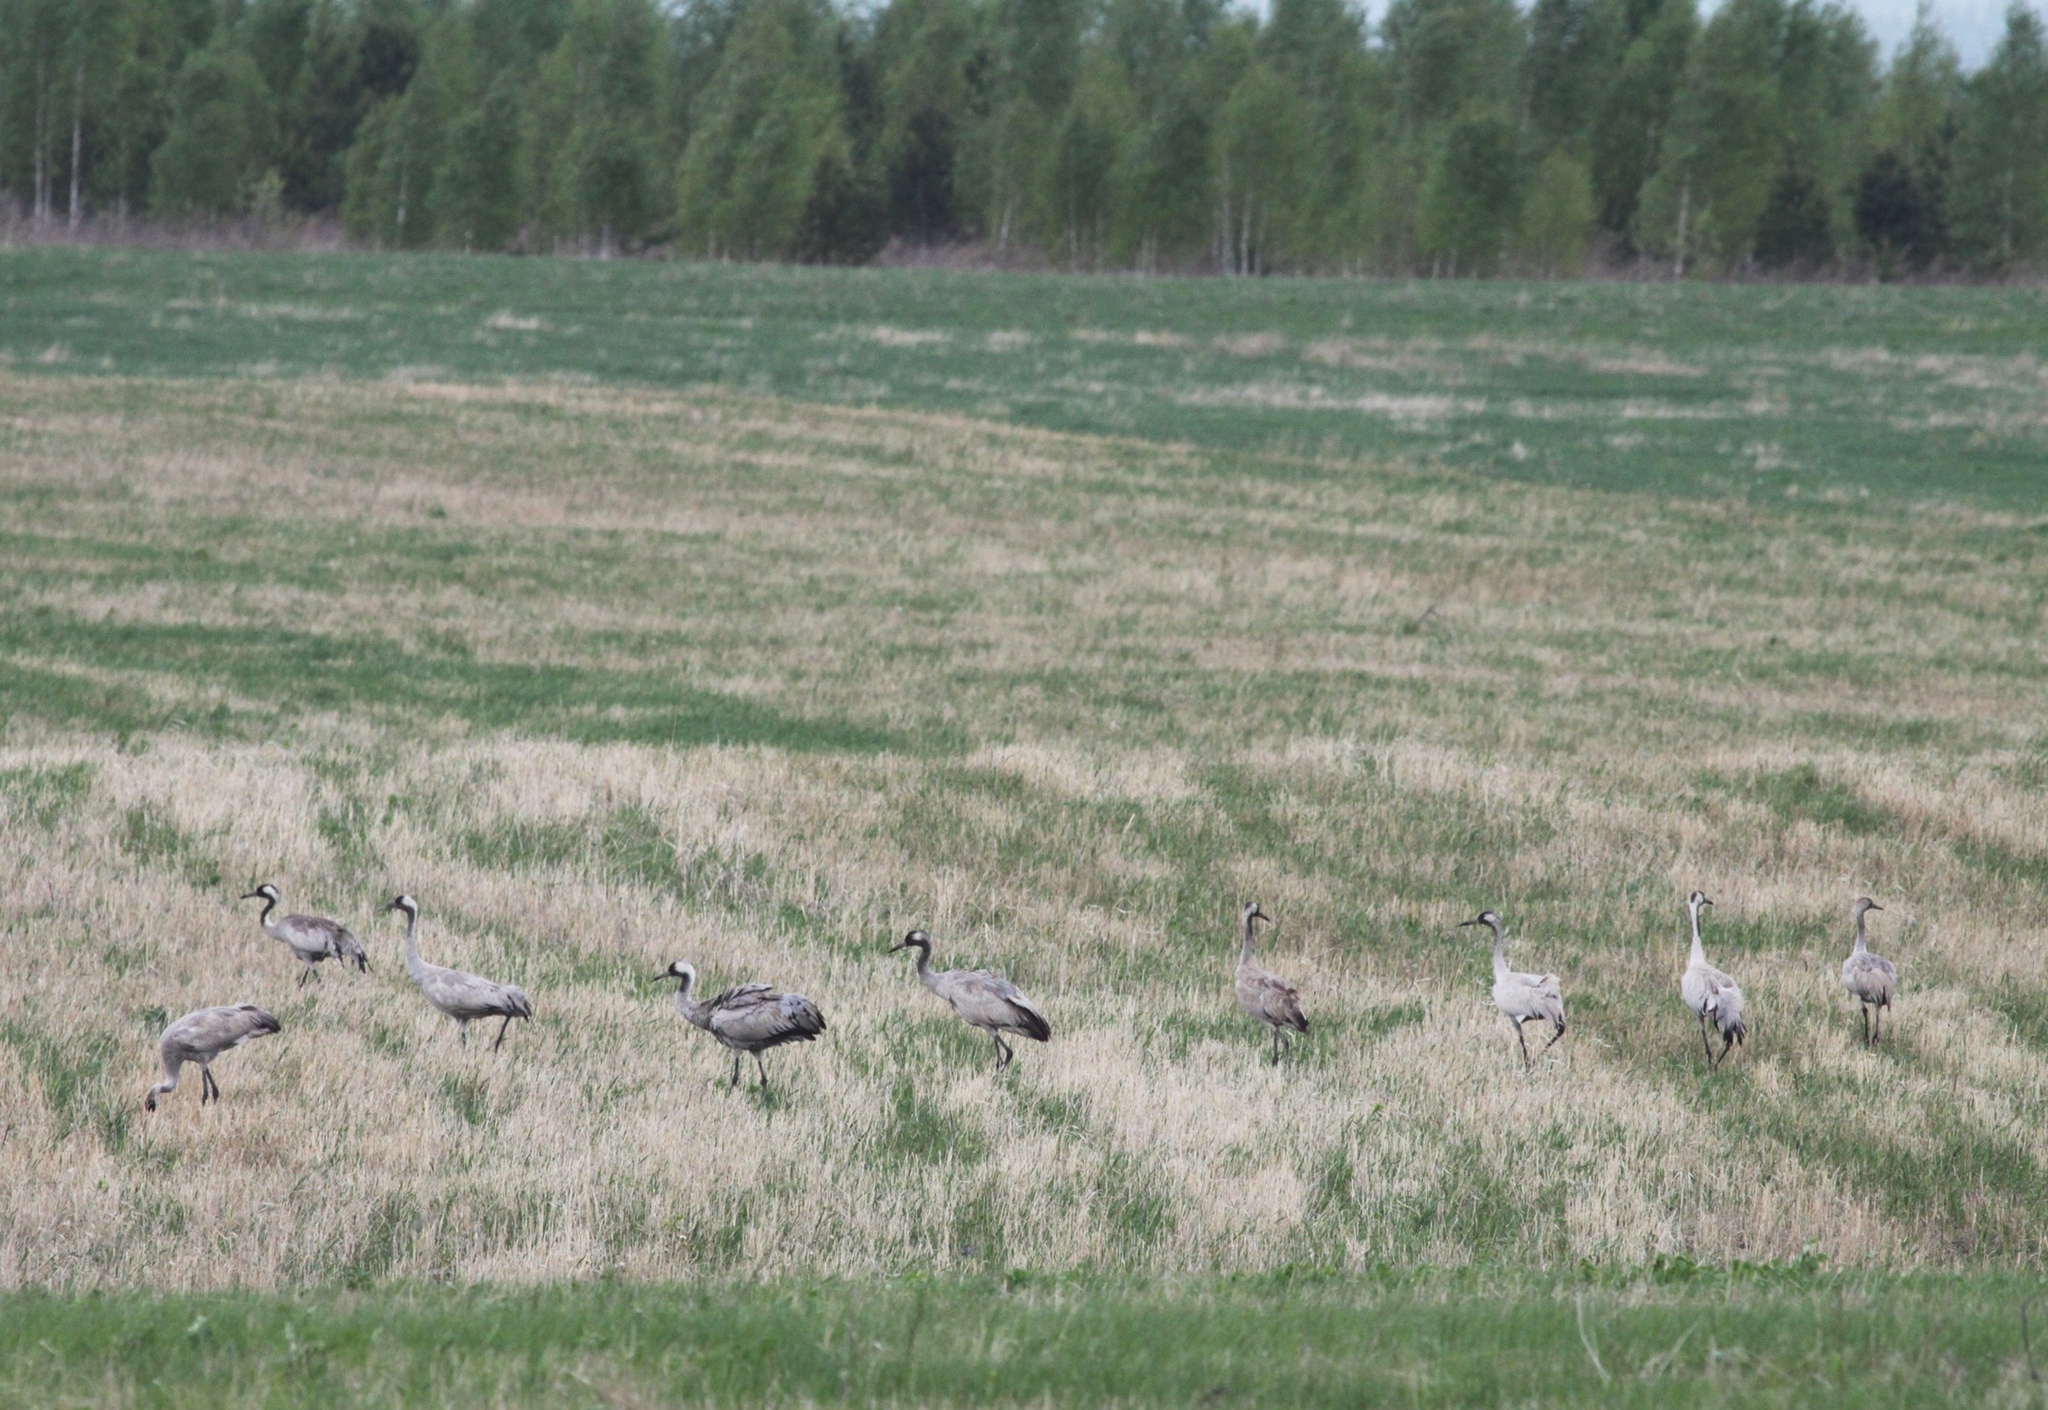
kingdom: Animalia
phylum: Chordata
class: Aves
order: Gruiformes
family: Gruidae
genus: Grus
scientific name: Grus grus
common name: Common crane
